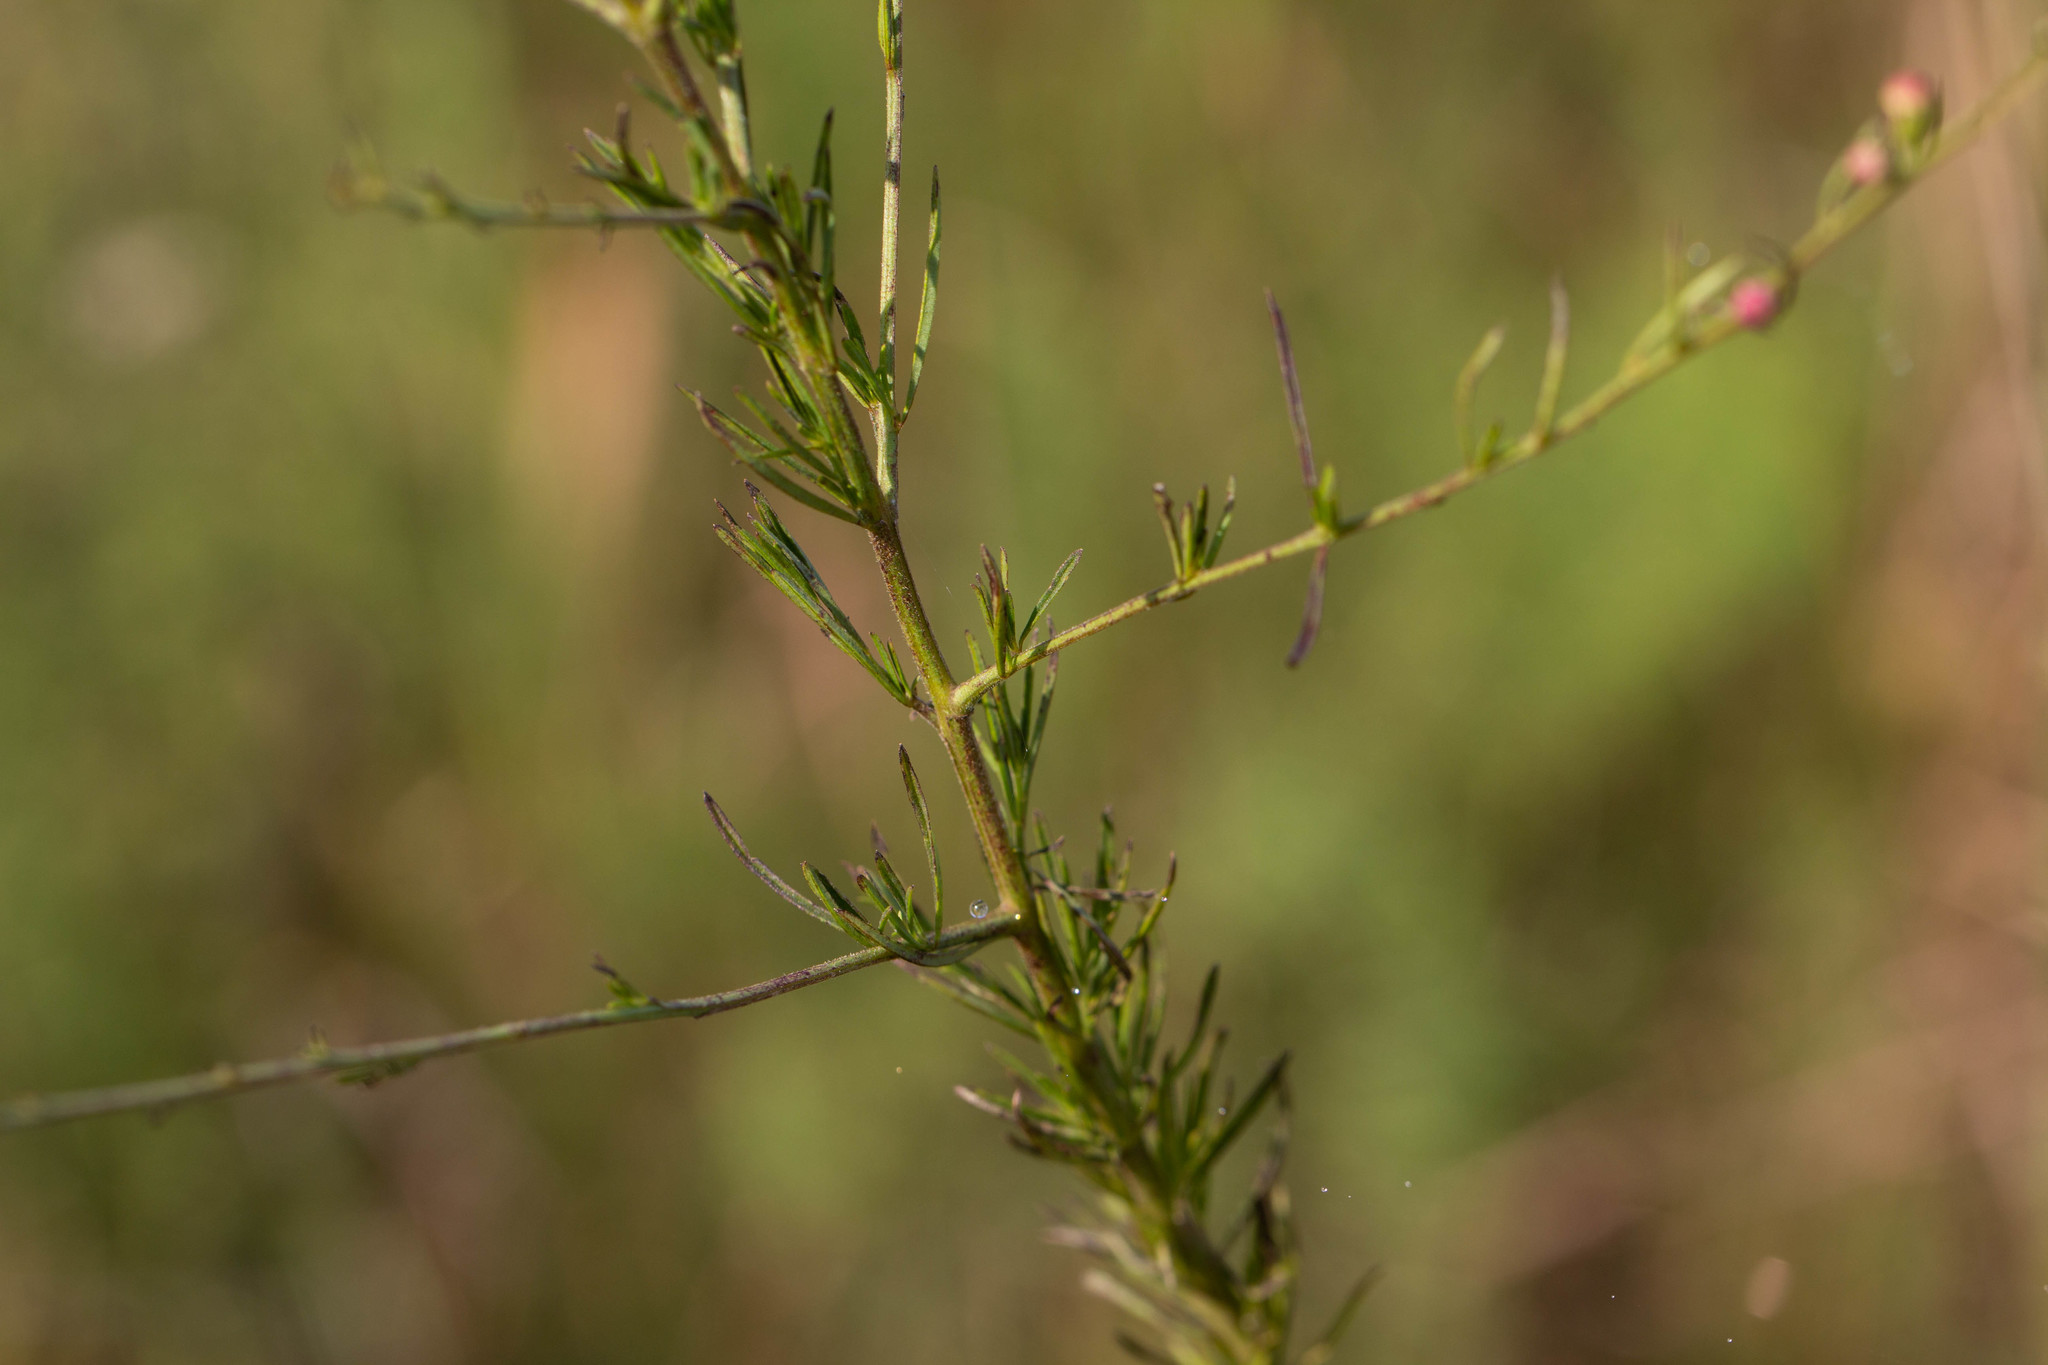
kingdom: Plantae
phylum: Tracheophyta
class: Magnoliopsida
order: Lamiales
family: Orobanchaceae
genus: Agalinis
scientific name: Agalinis fasciculata
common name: Beach false foxglove
